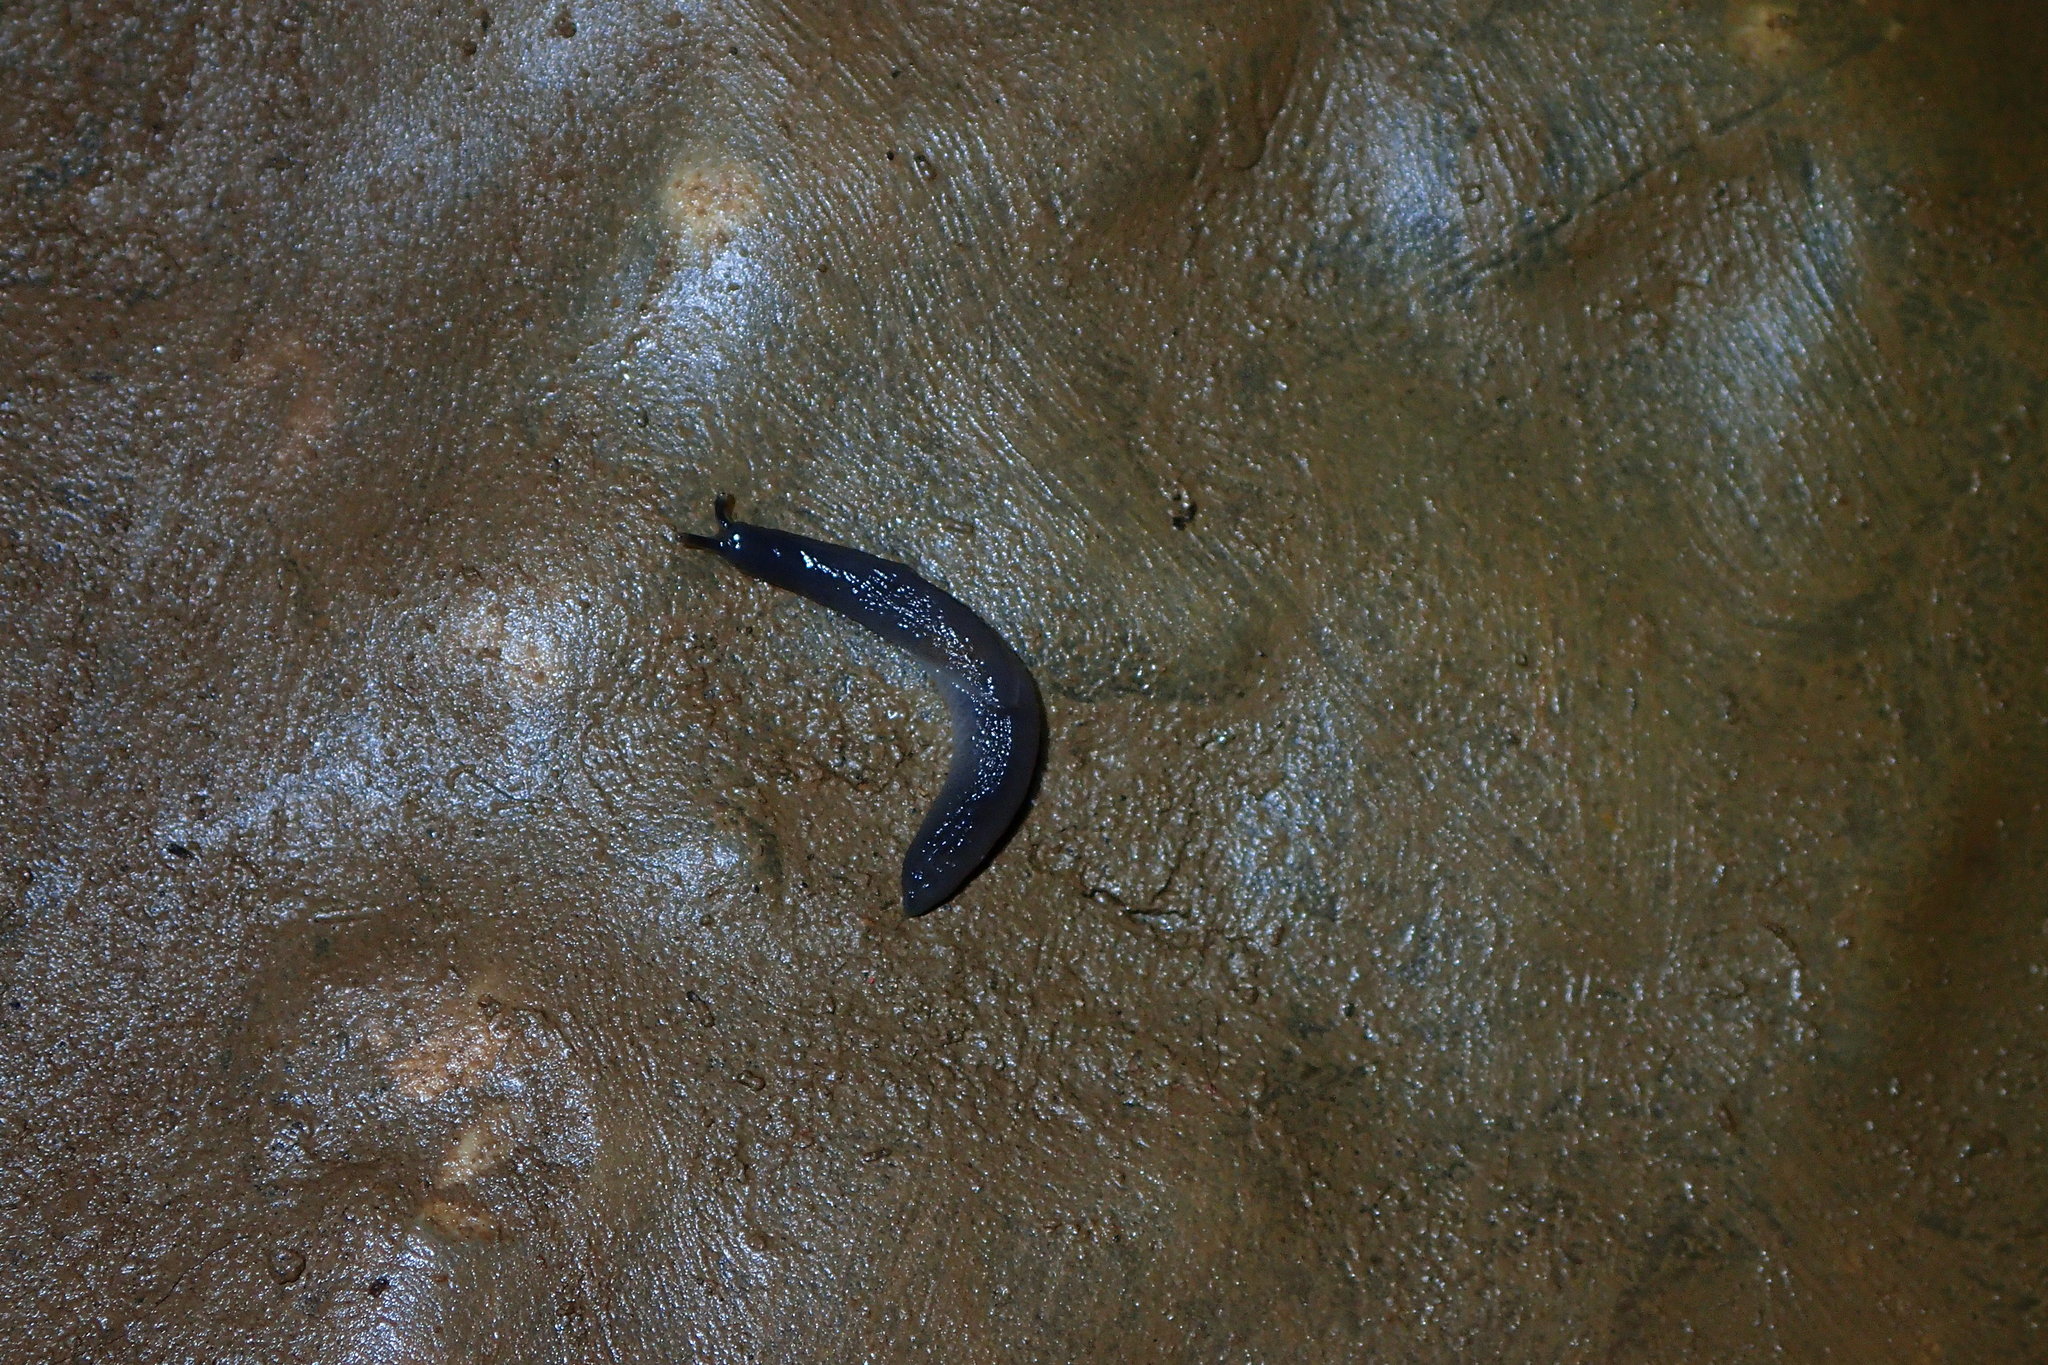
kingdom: Animalia
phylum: Mollusca
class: Gastropoda
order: Stylommatophora
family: Boettgerillidae
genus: Boettgerilla
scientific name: Boettgerilla pallens
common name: Worm slug
